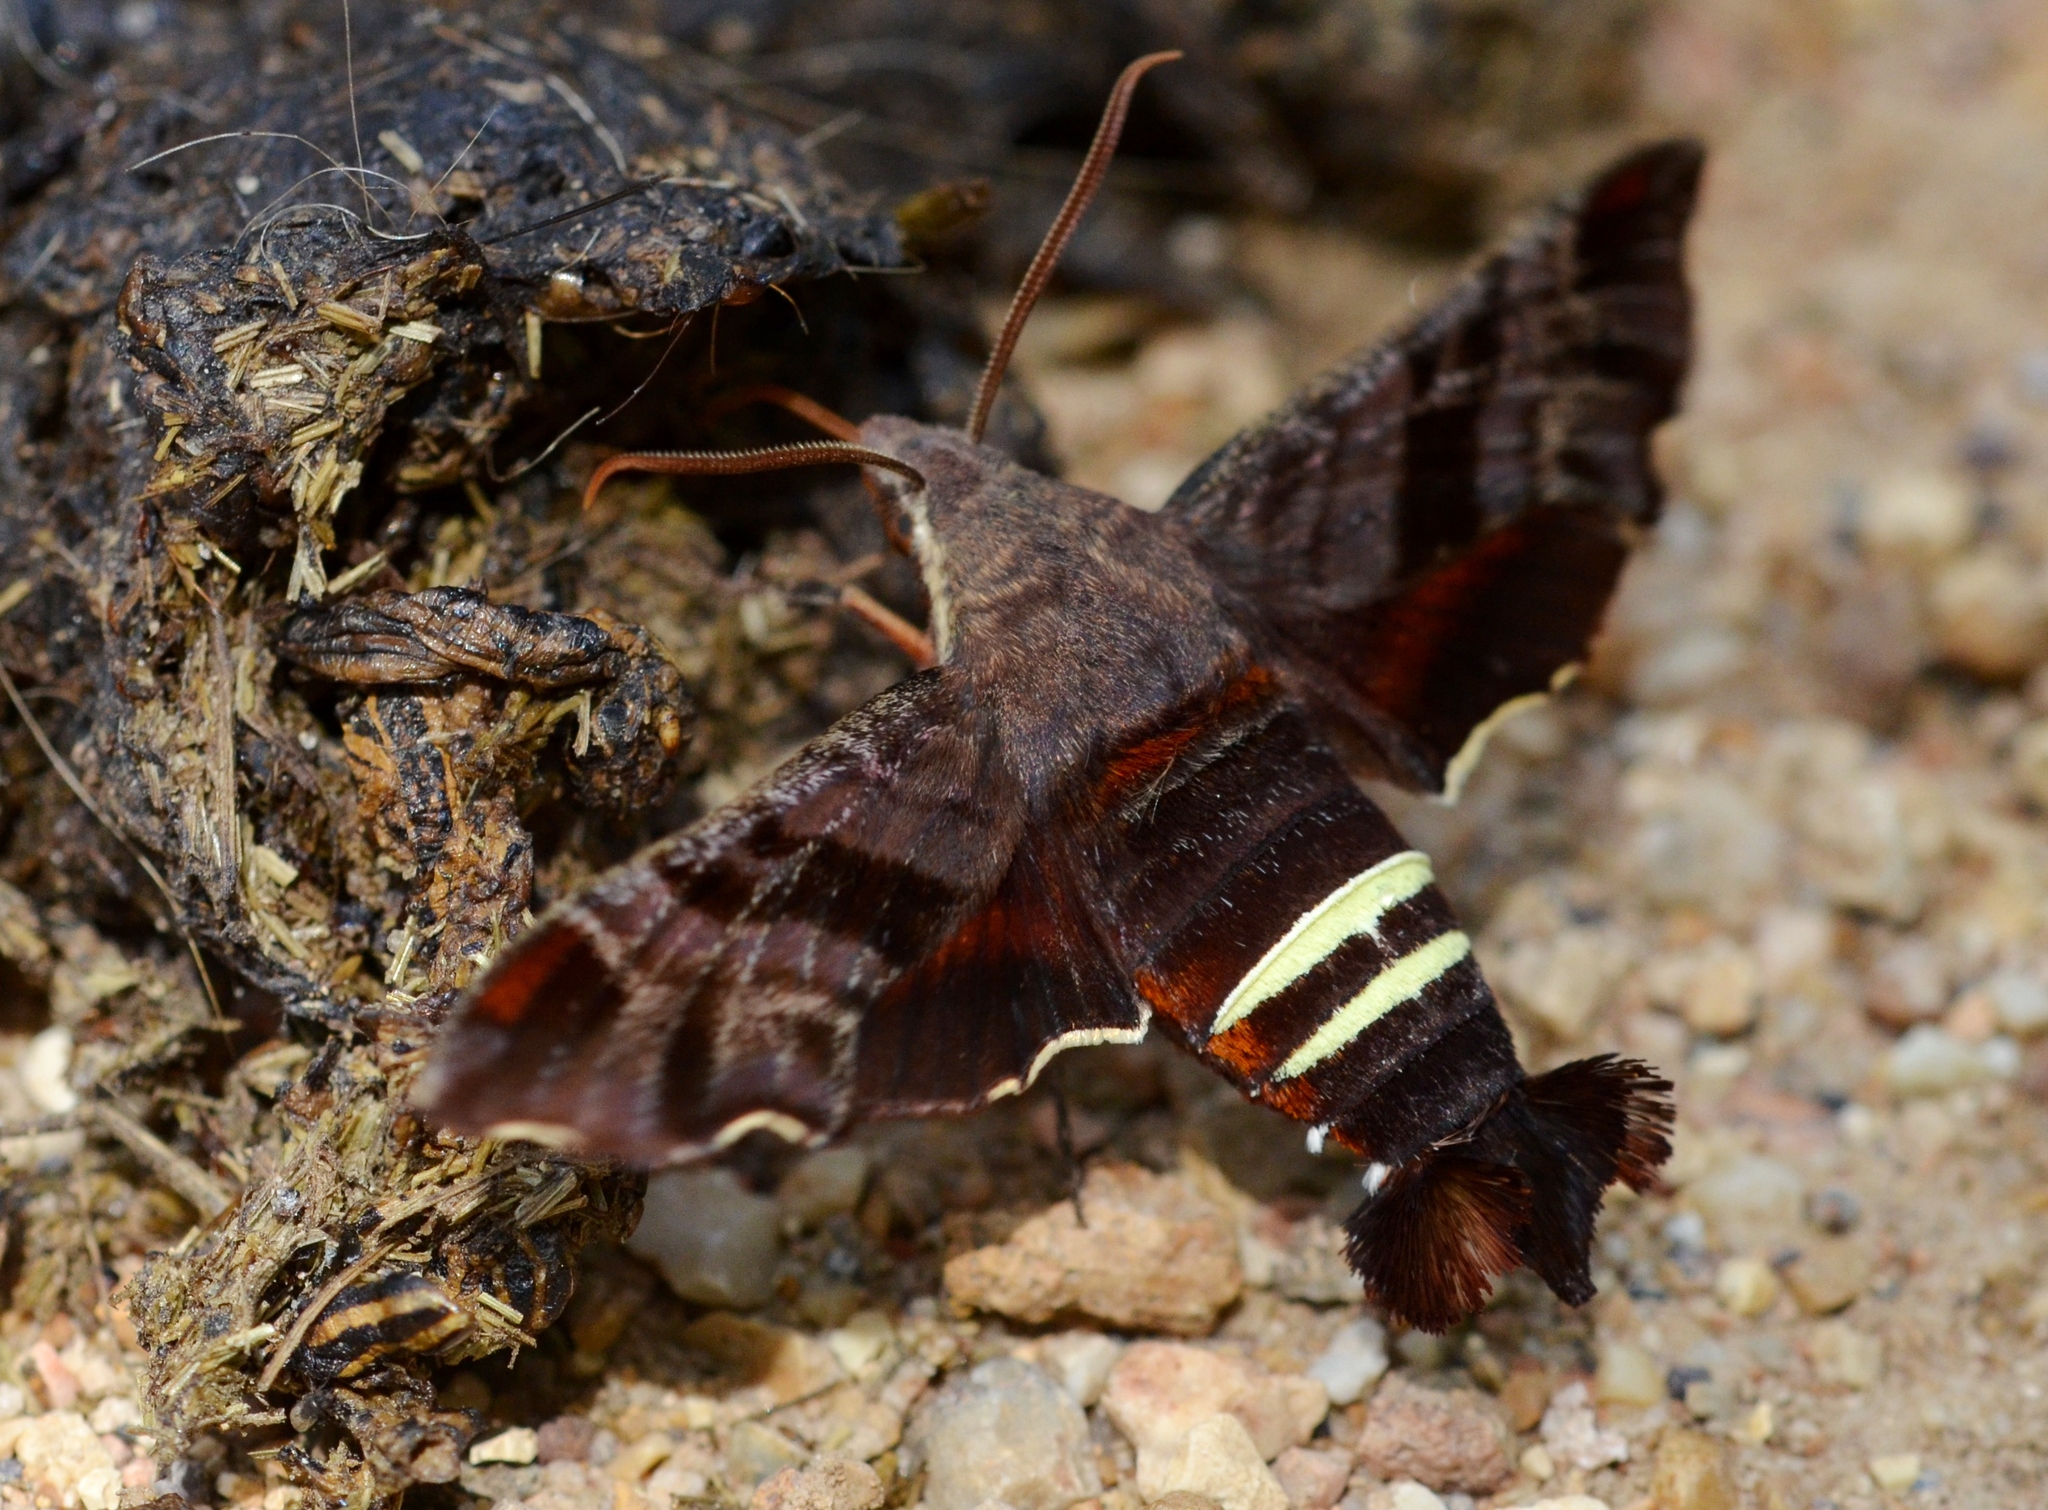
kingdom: Animalia
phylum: Arthropoda
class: Insecta
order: Lepidoptera
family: Sphingidae
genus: Amphion
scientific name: Amphion floridensis
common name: Nessus sphinx
